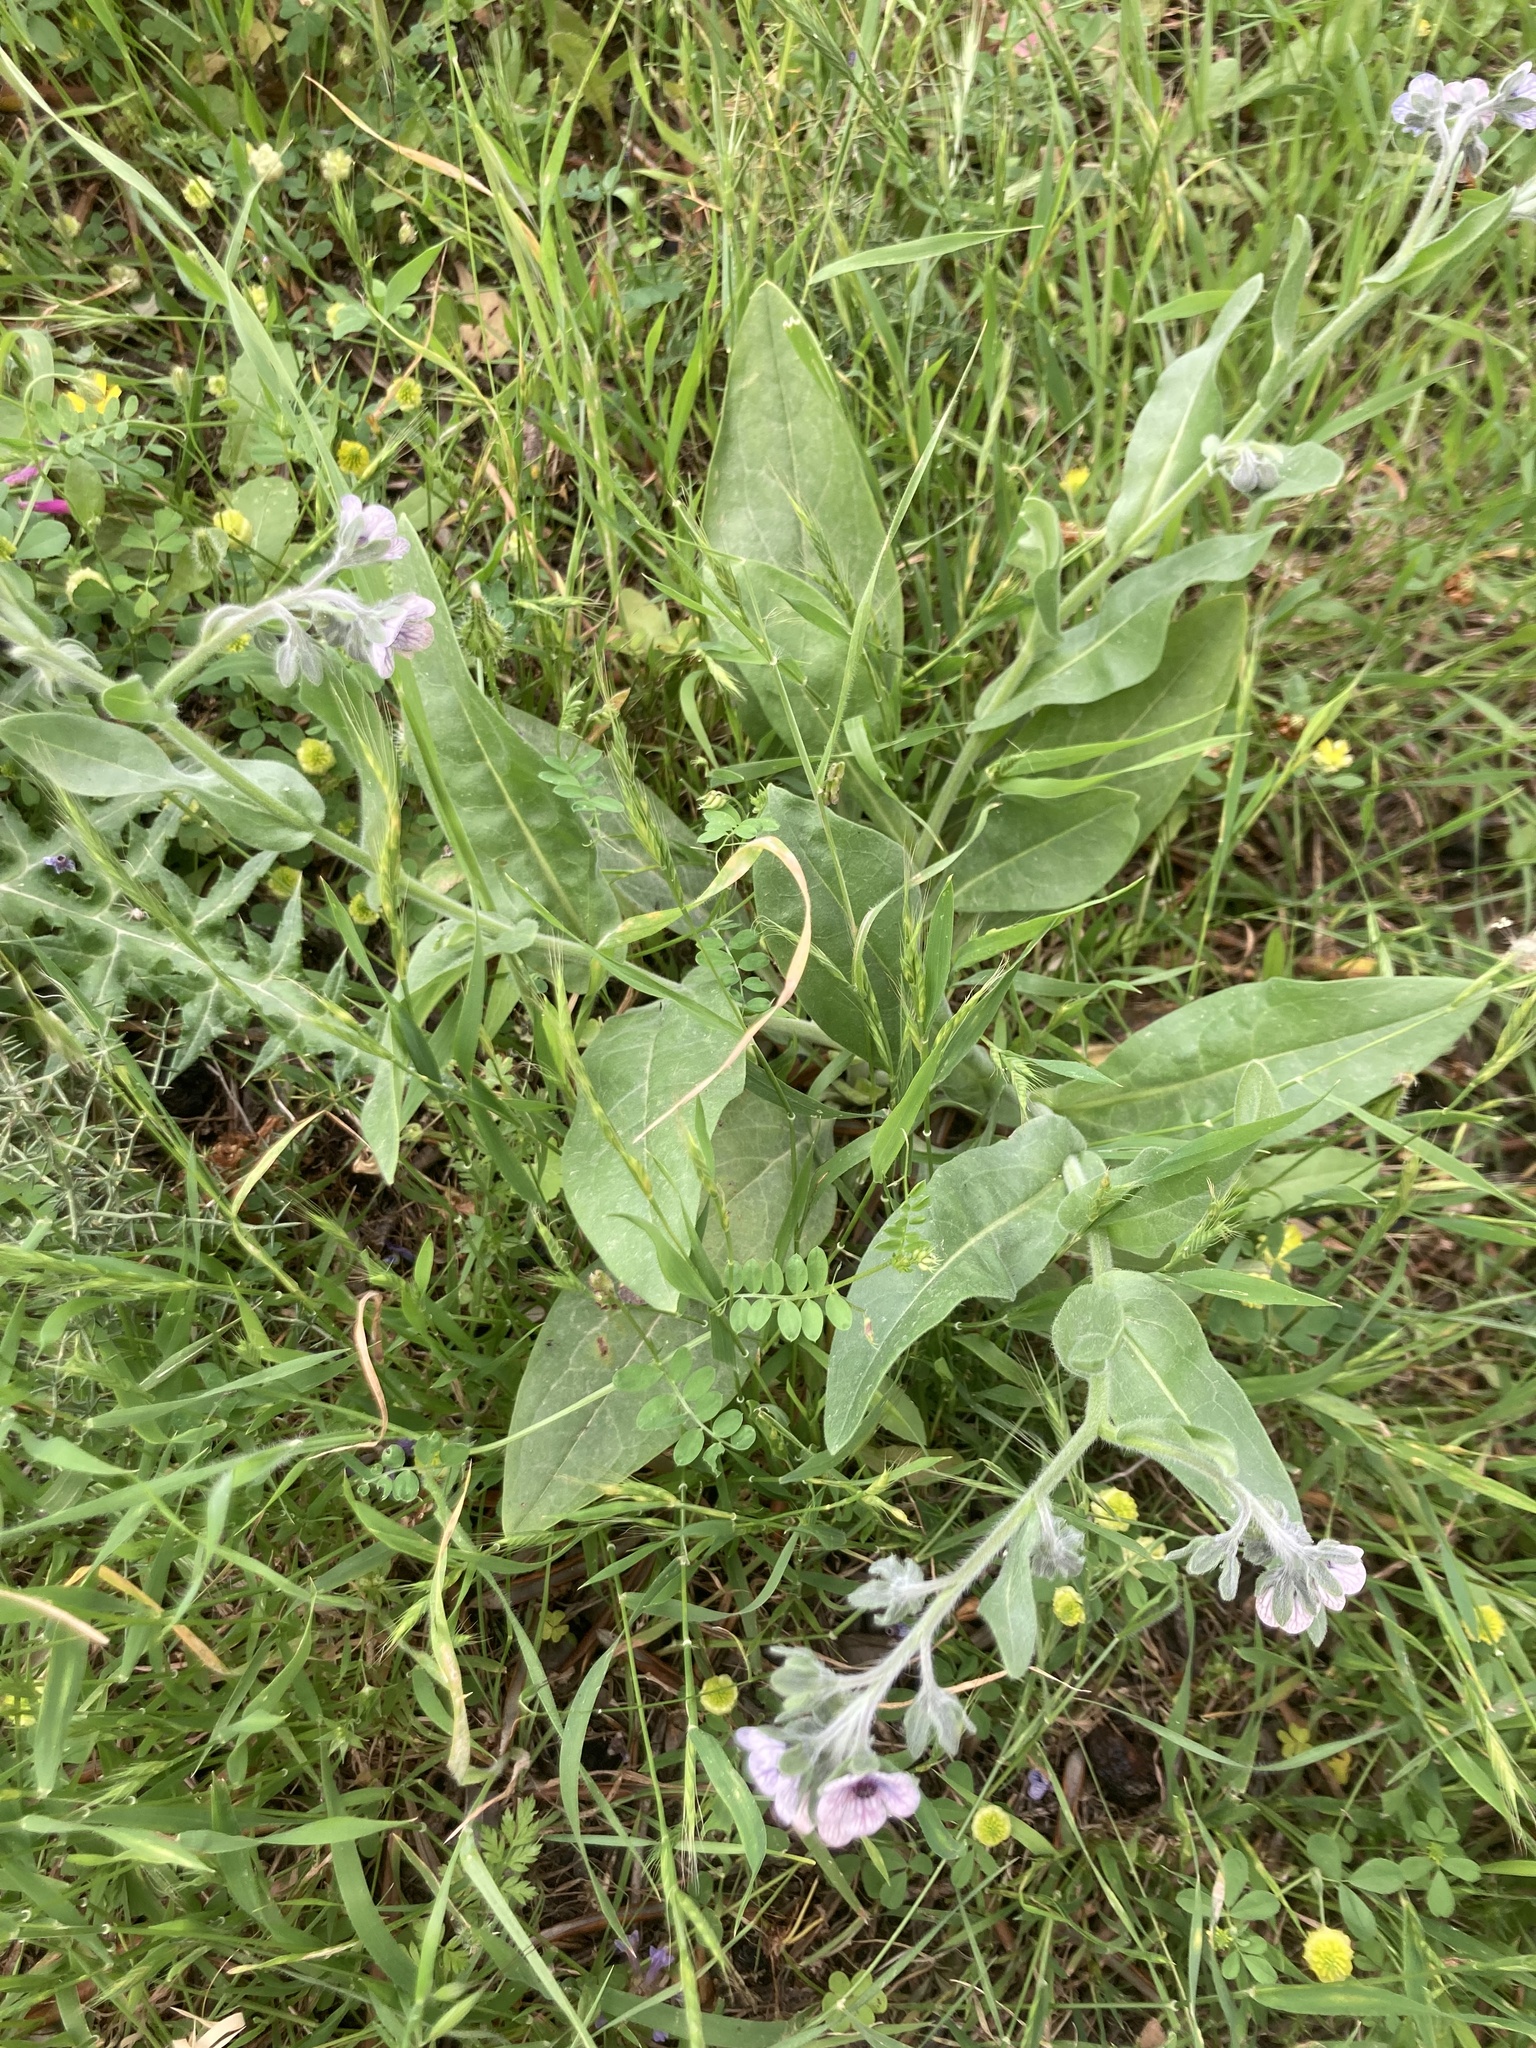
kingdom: Plantae
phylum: Tracheophyta
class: Magnoliopsida
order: Boraginales
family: Boraginaceae
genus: Cynoglossum
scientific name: Cynoglossum creticum
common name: Blue hound's tongue
